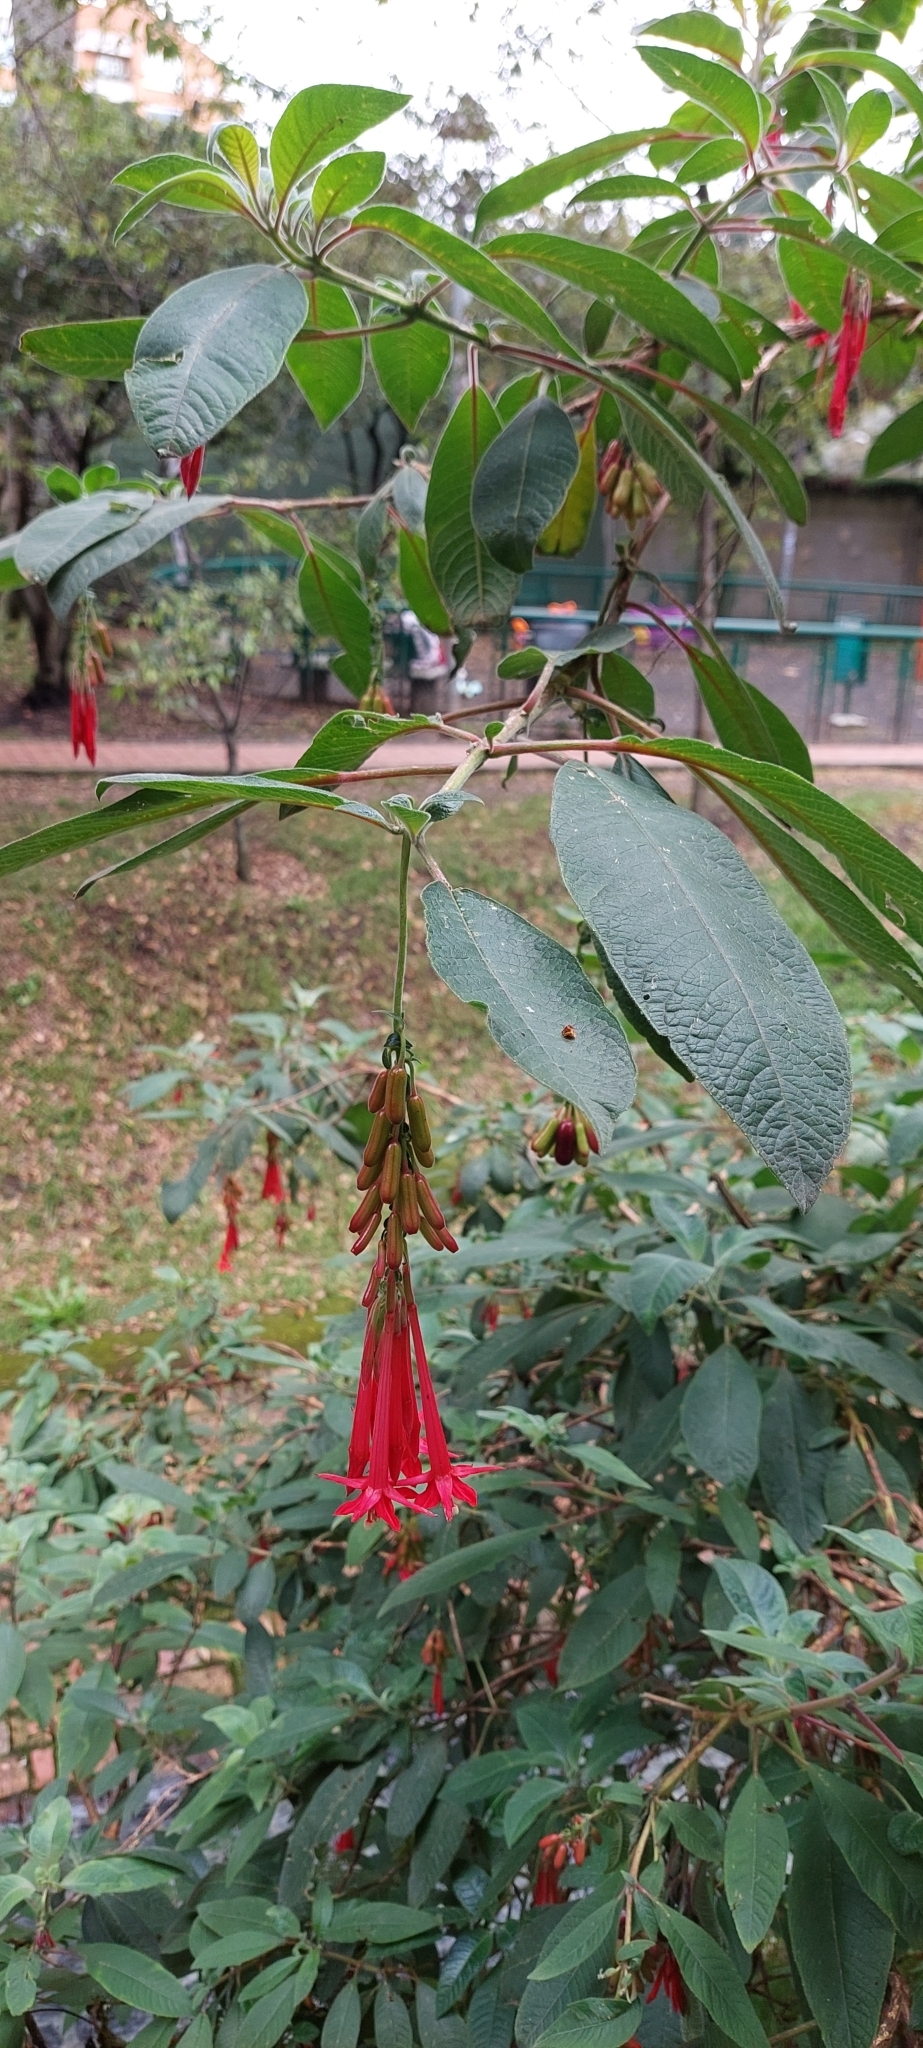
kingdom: Plantae
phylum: Tracheophyta
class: Magnoliopsida
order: Myrtales
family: Onagraceae
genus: Fuchsia
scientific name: Fuchsia boliviana
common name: Bolivian fuchsia
